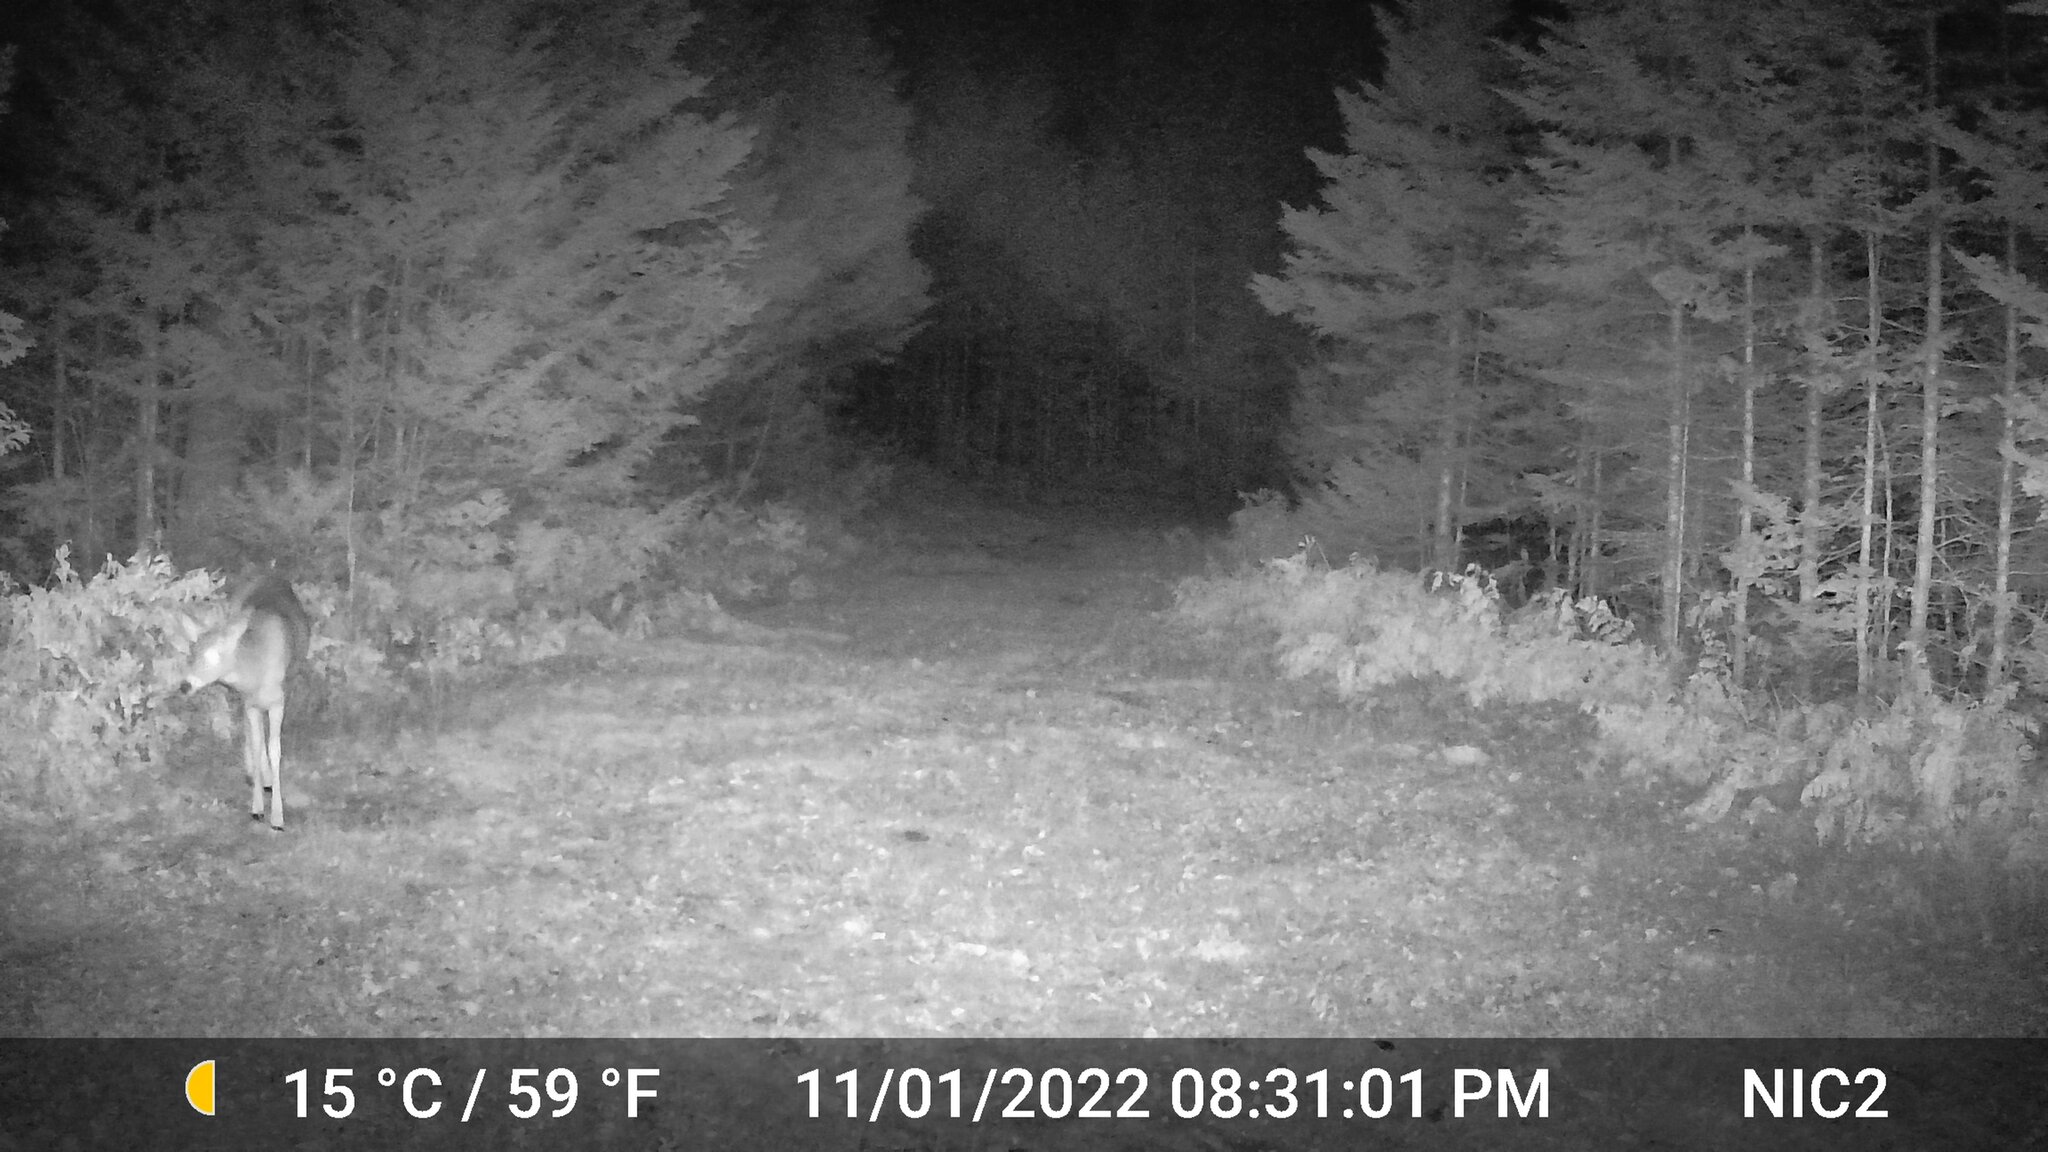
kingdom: Animalia
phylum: Chordata
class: Mammalia
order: Artiodactyla
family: Cervidae
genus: Odocoileus
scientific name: Odocoileus virginianus
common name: White-tailed deer
